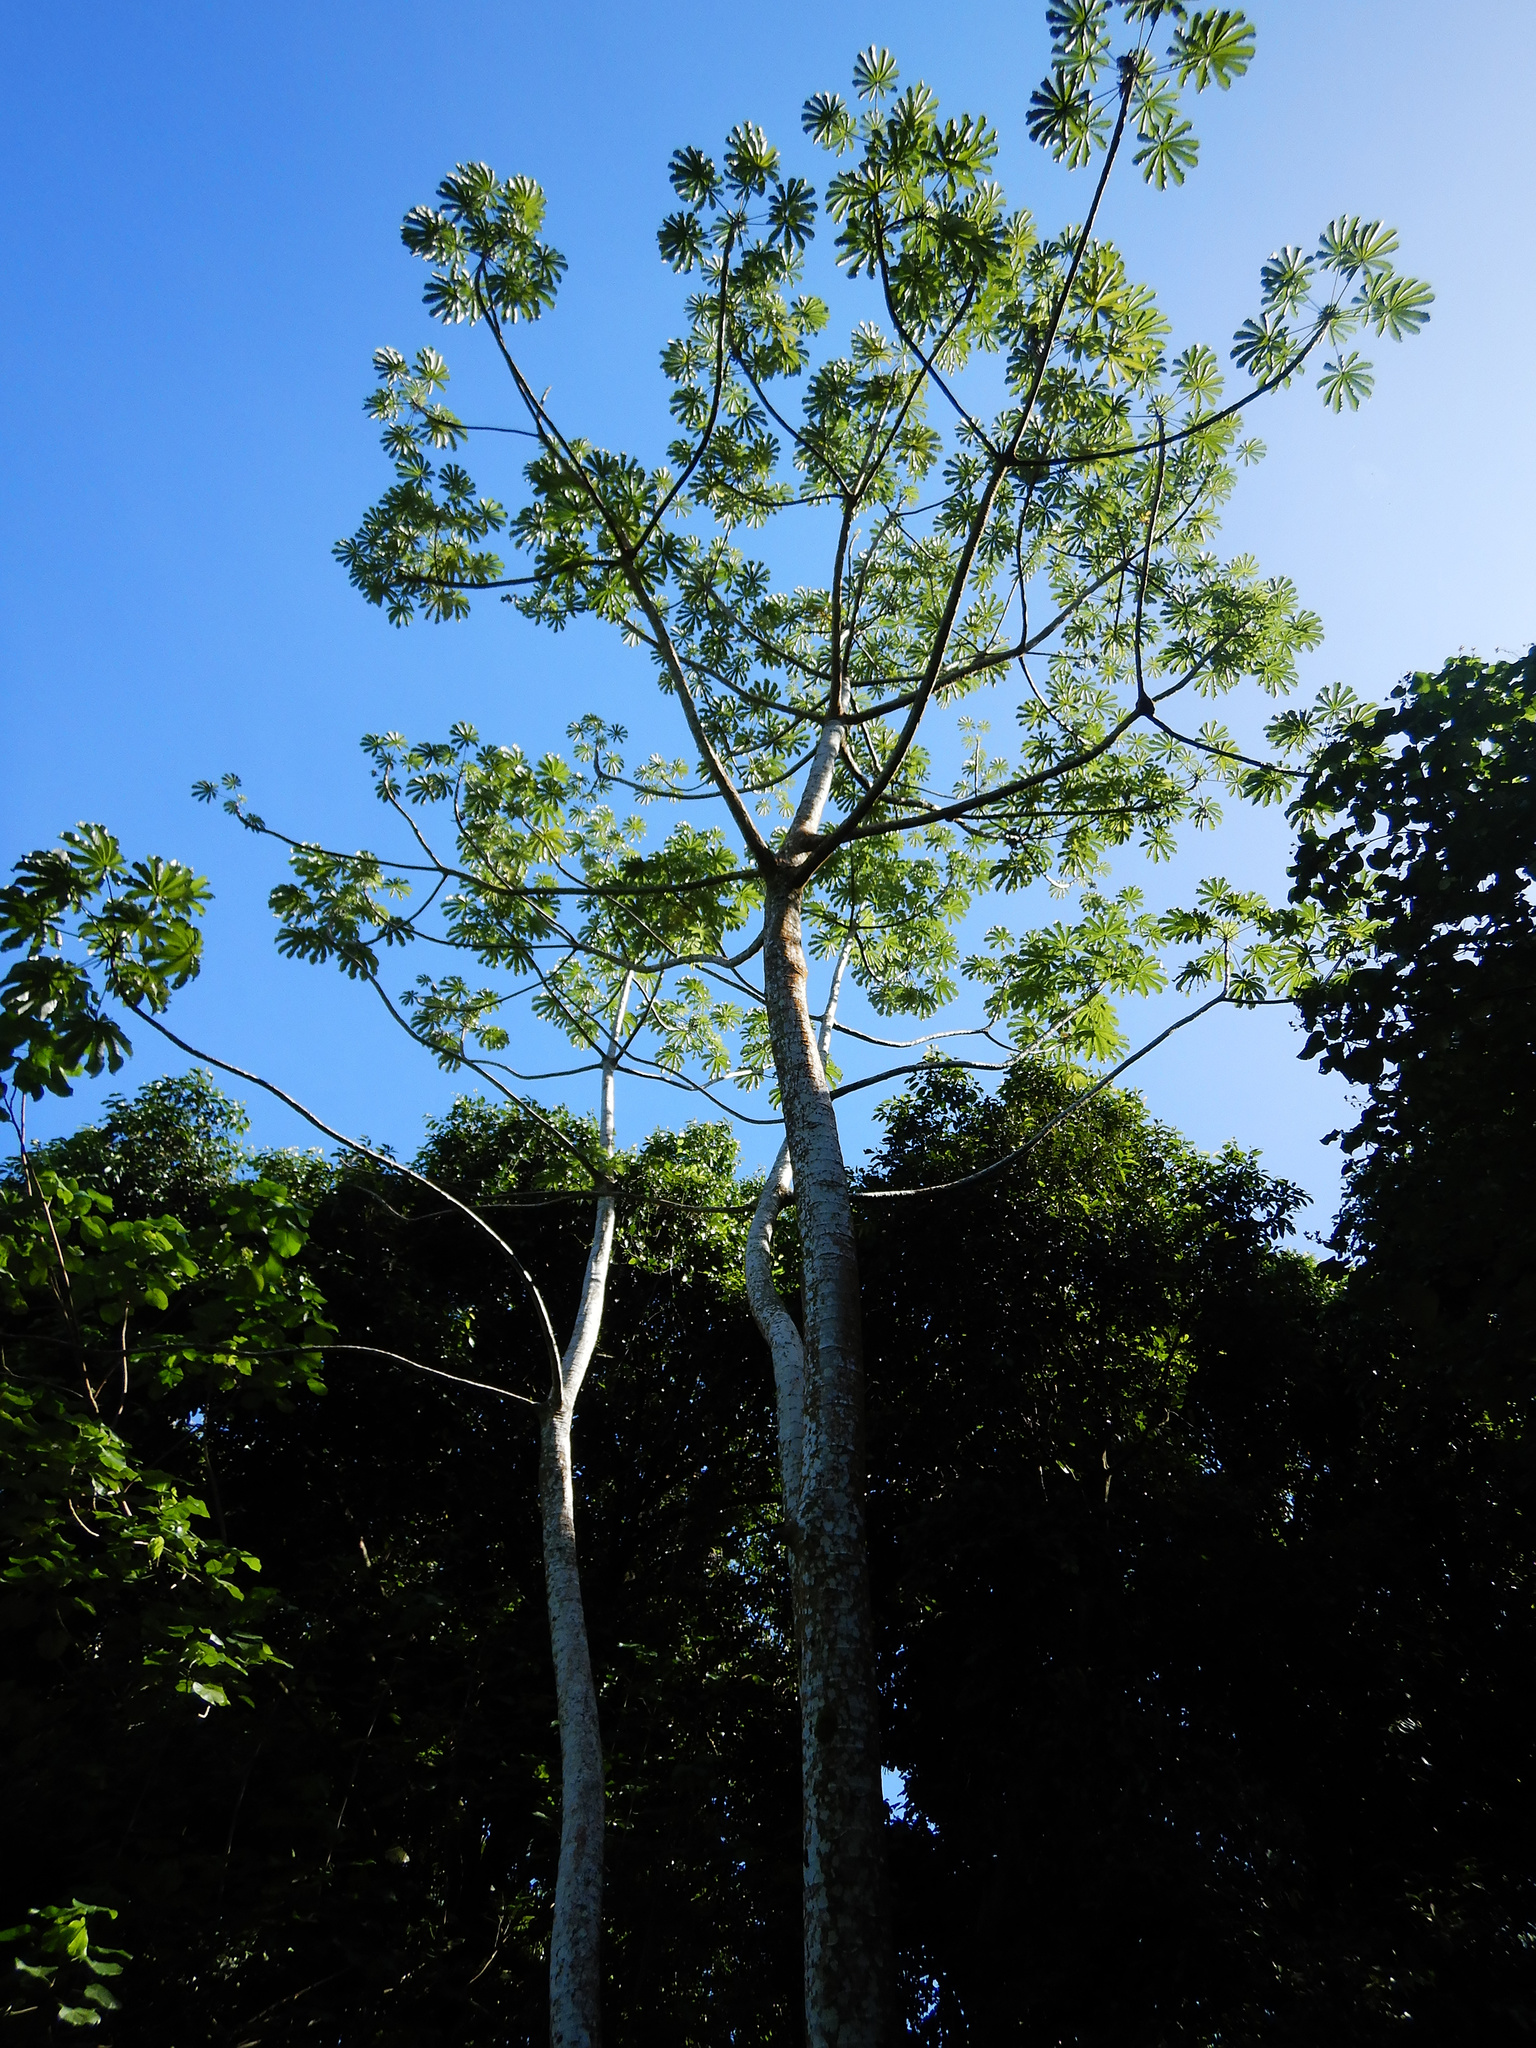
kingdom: Plantae
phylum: Tracheophyta
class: Magnoliopsida
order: Rosales
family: Urticaceae
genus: Cecropia
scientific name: Cecropia pachystachya
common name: Ambay pumpwood
